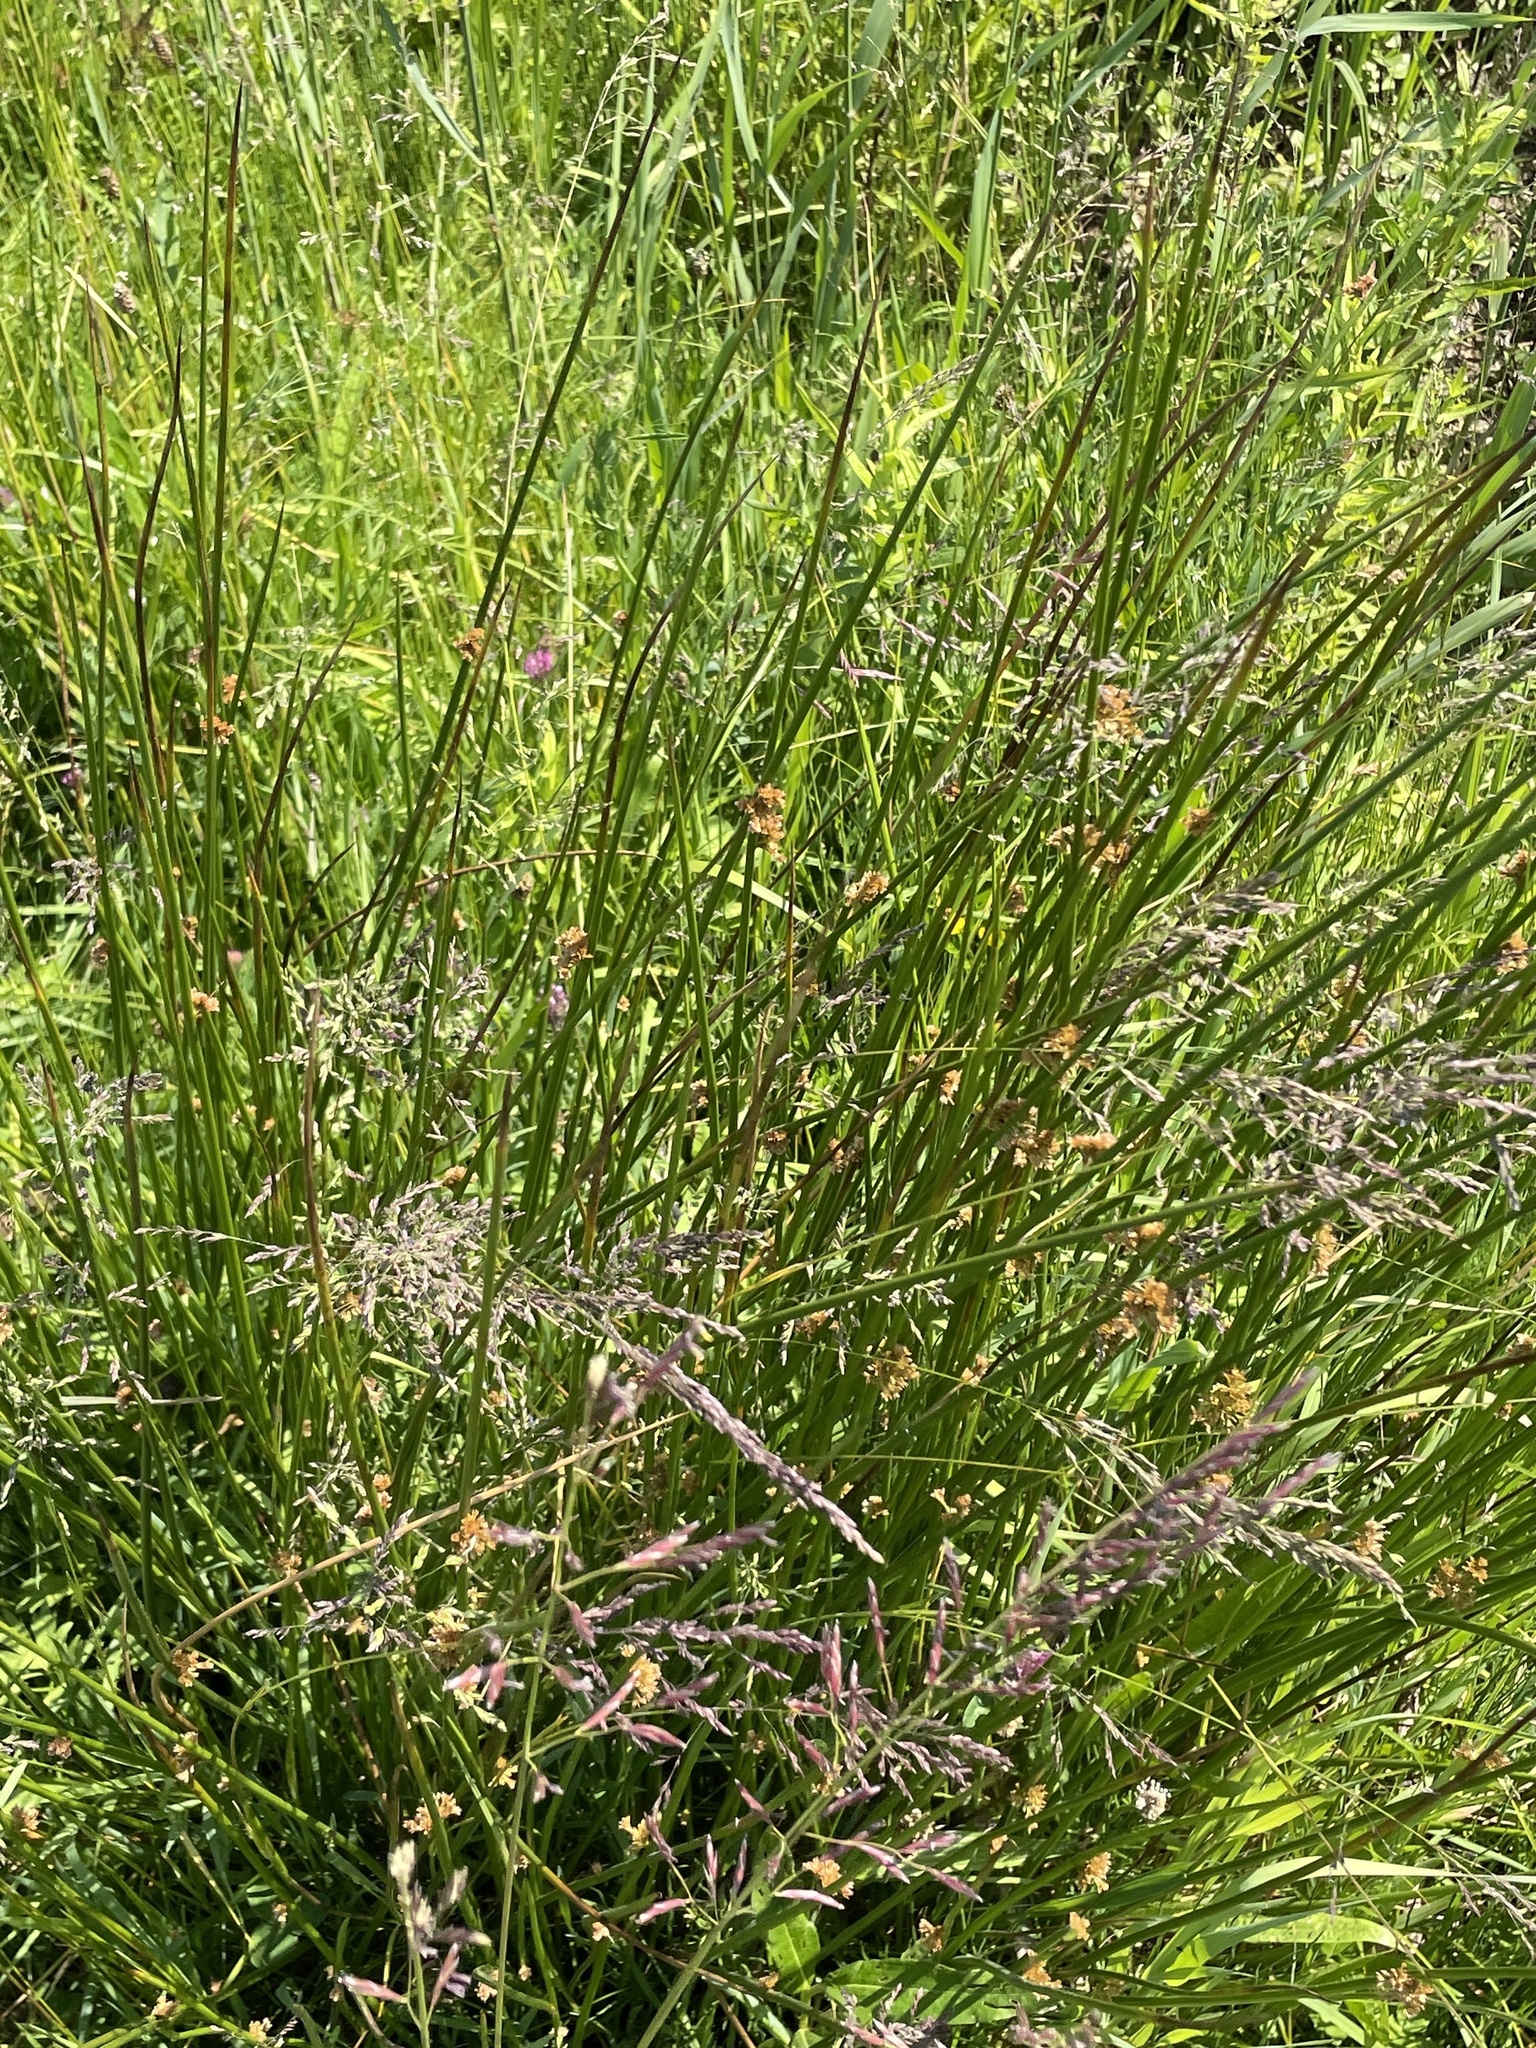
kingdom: Plantae
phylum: Tracheophyta
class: Liliopsida
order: Poales
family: Juncaceae
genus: Juncus
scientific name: Juncus effusus
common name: Soft rush
